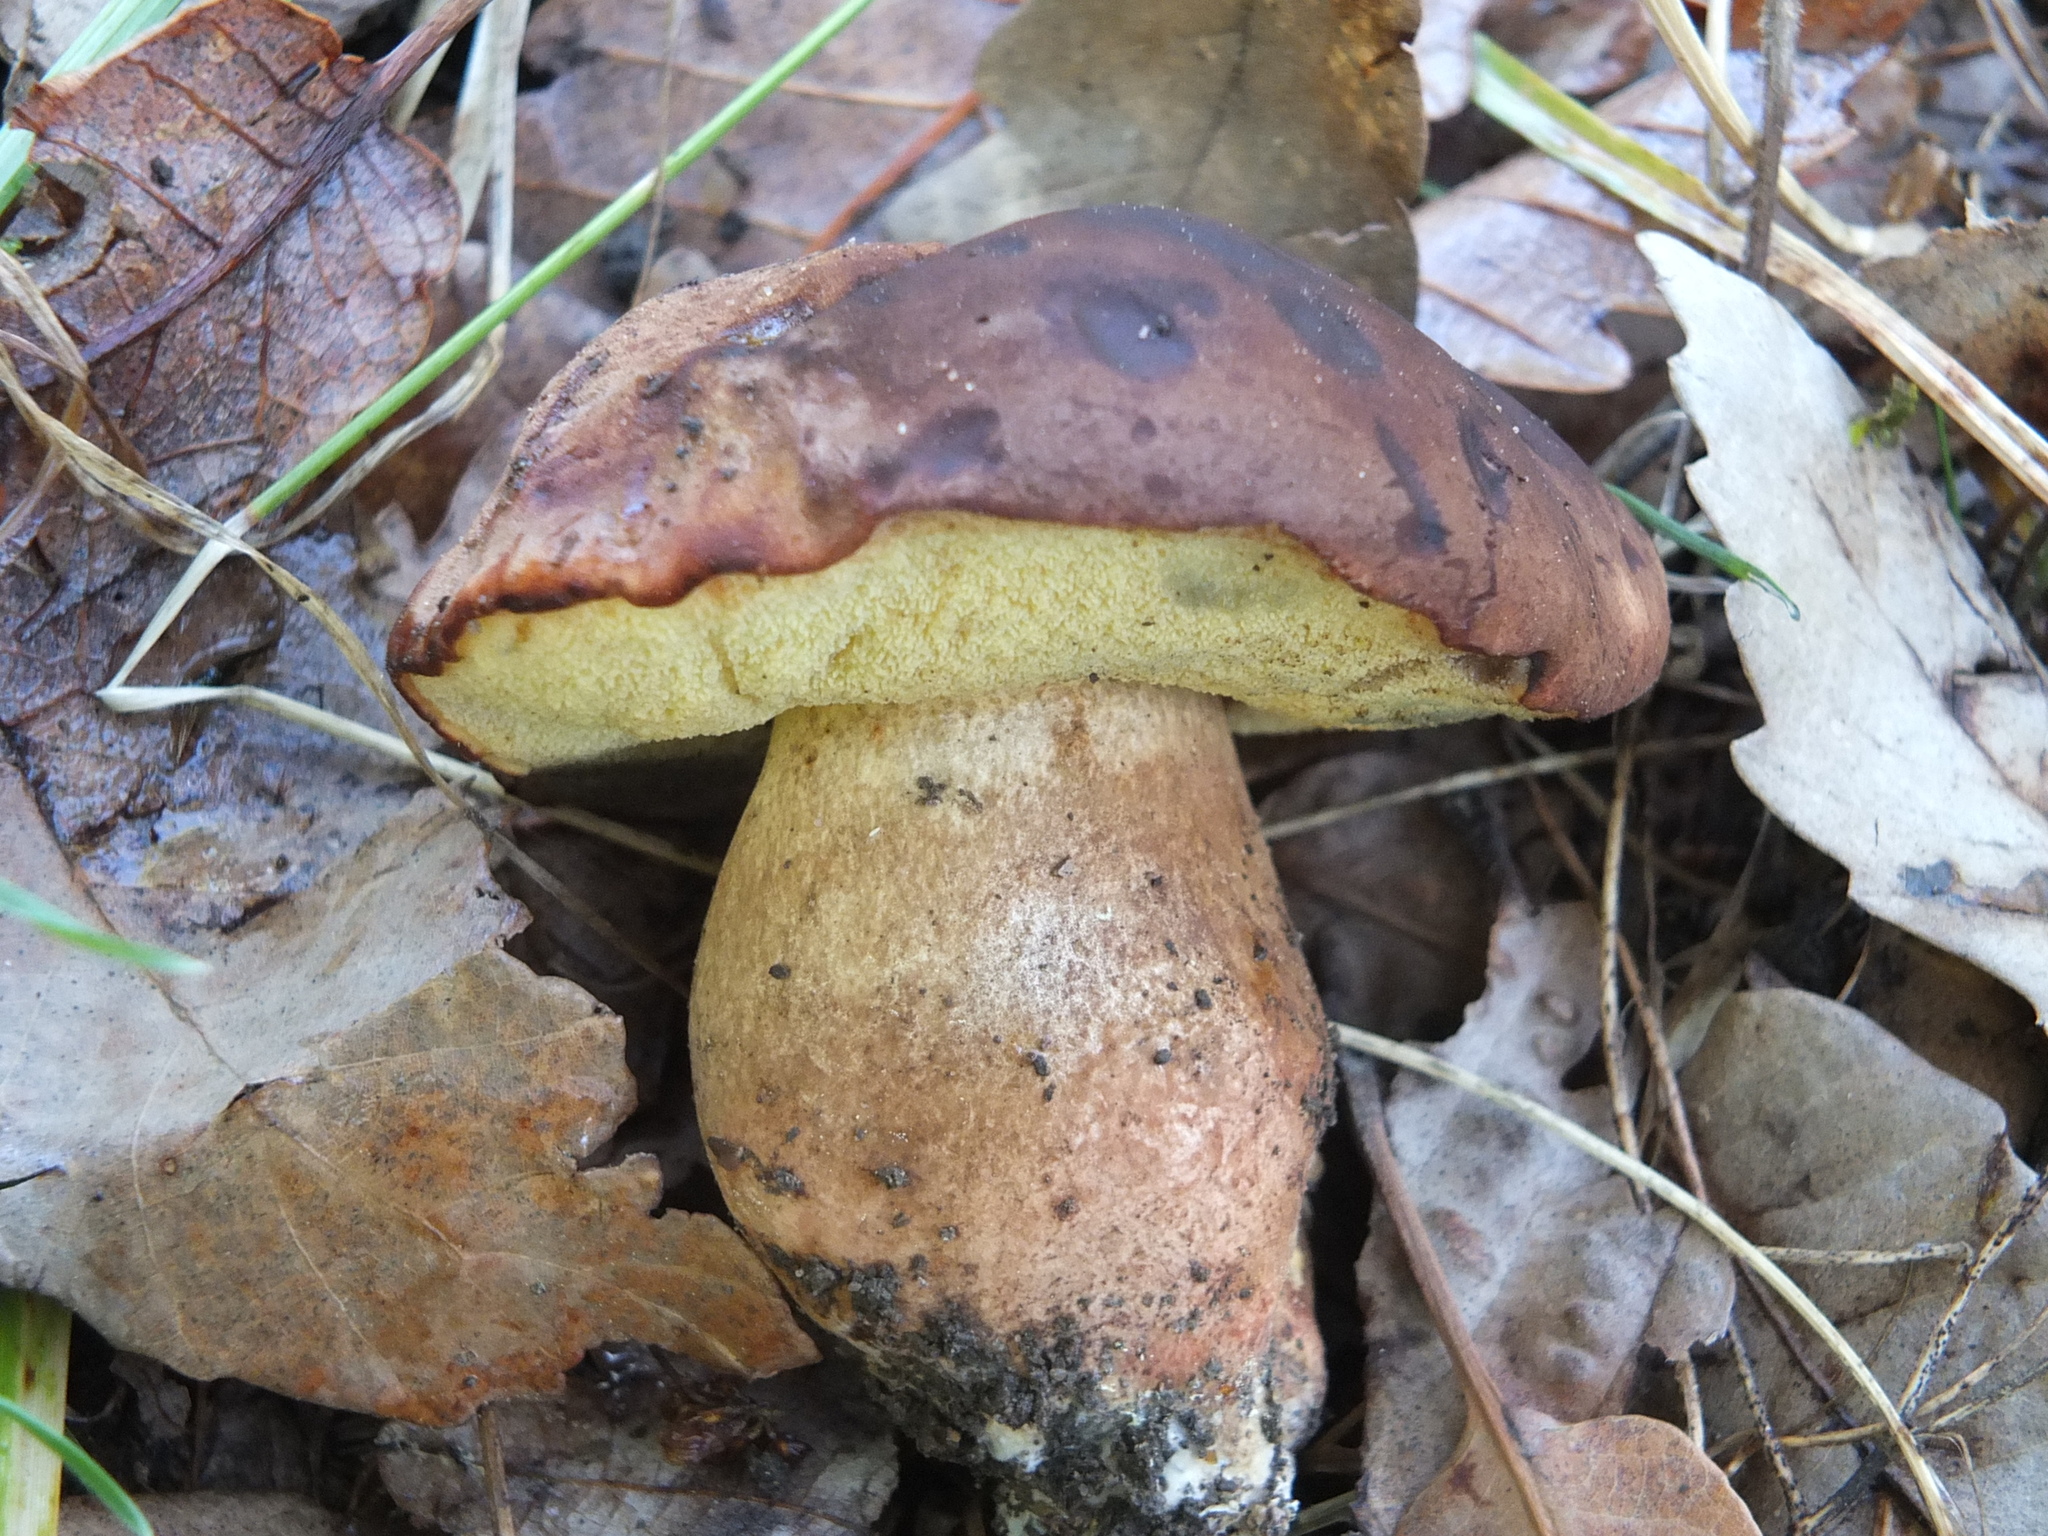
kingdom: Fungi
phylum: Basidiomycota
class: Agaricomycetes
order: Boletales
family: Boletaceae
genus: Lanmaoa
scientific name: Lanmaoa fragrans
